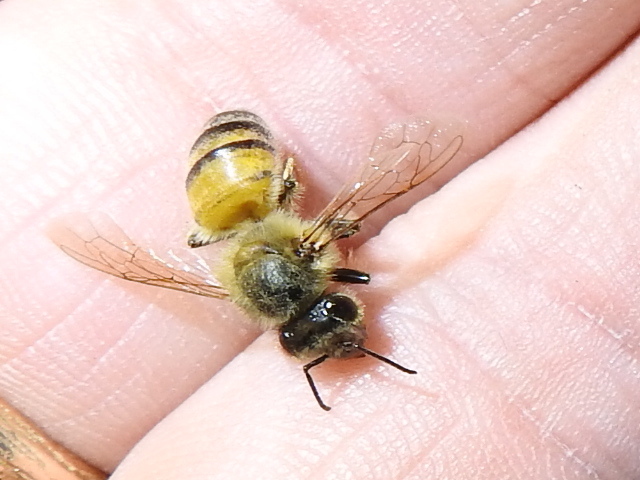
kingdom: Animalia
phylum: Arthropoda
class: Insecta
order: Hymenoptera
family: Apidae
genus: Apis
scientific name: Apis mellifera
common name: Honey bee
